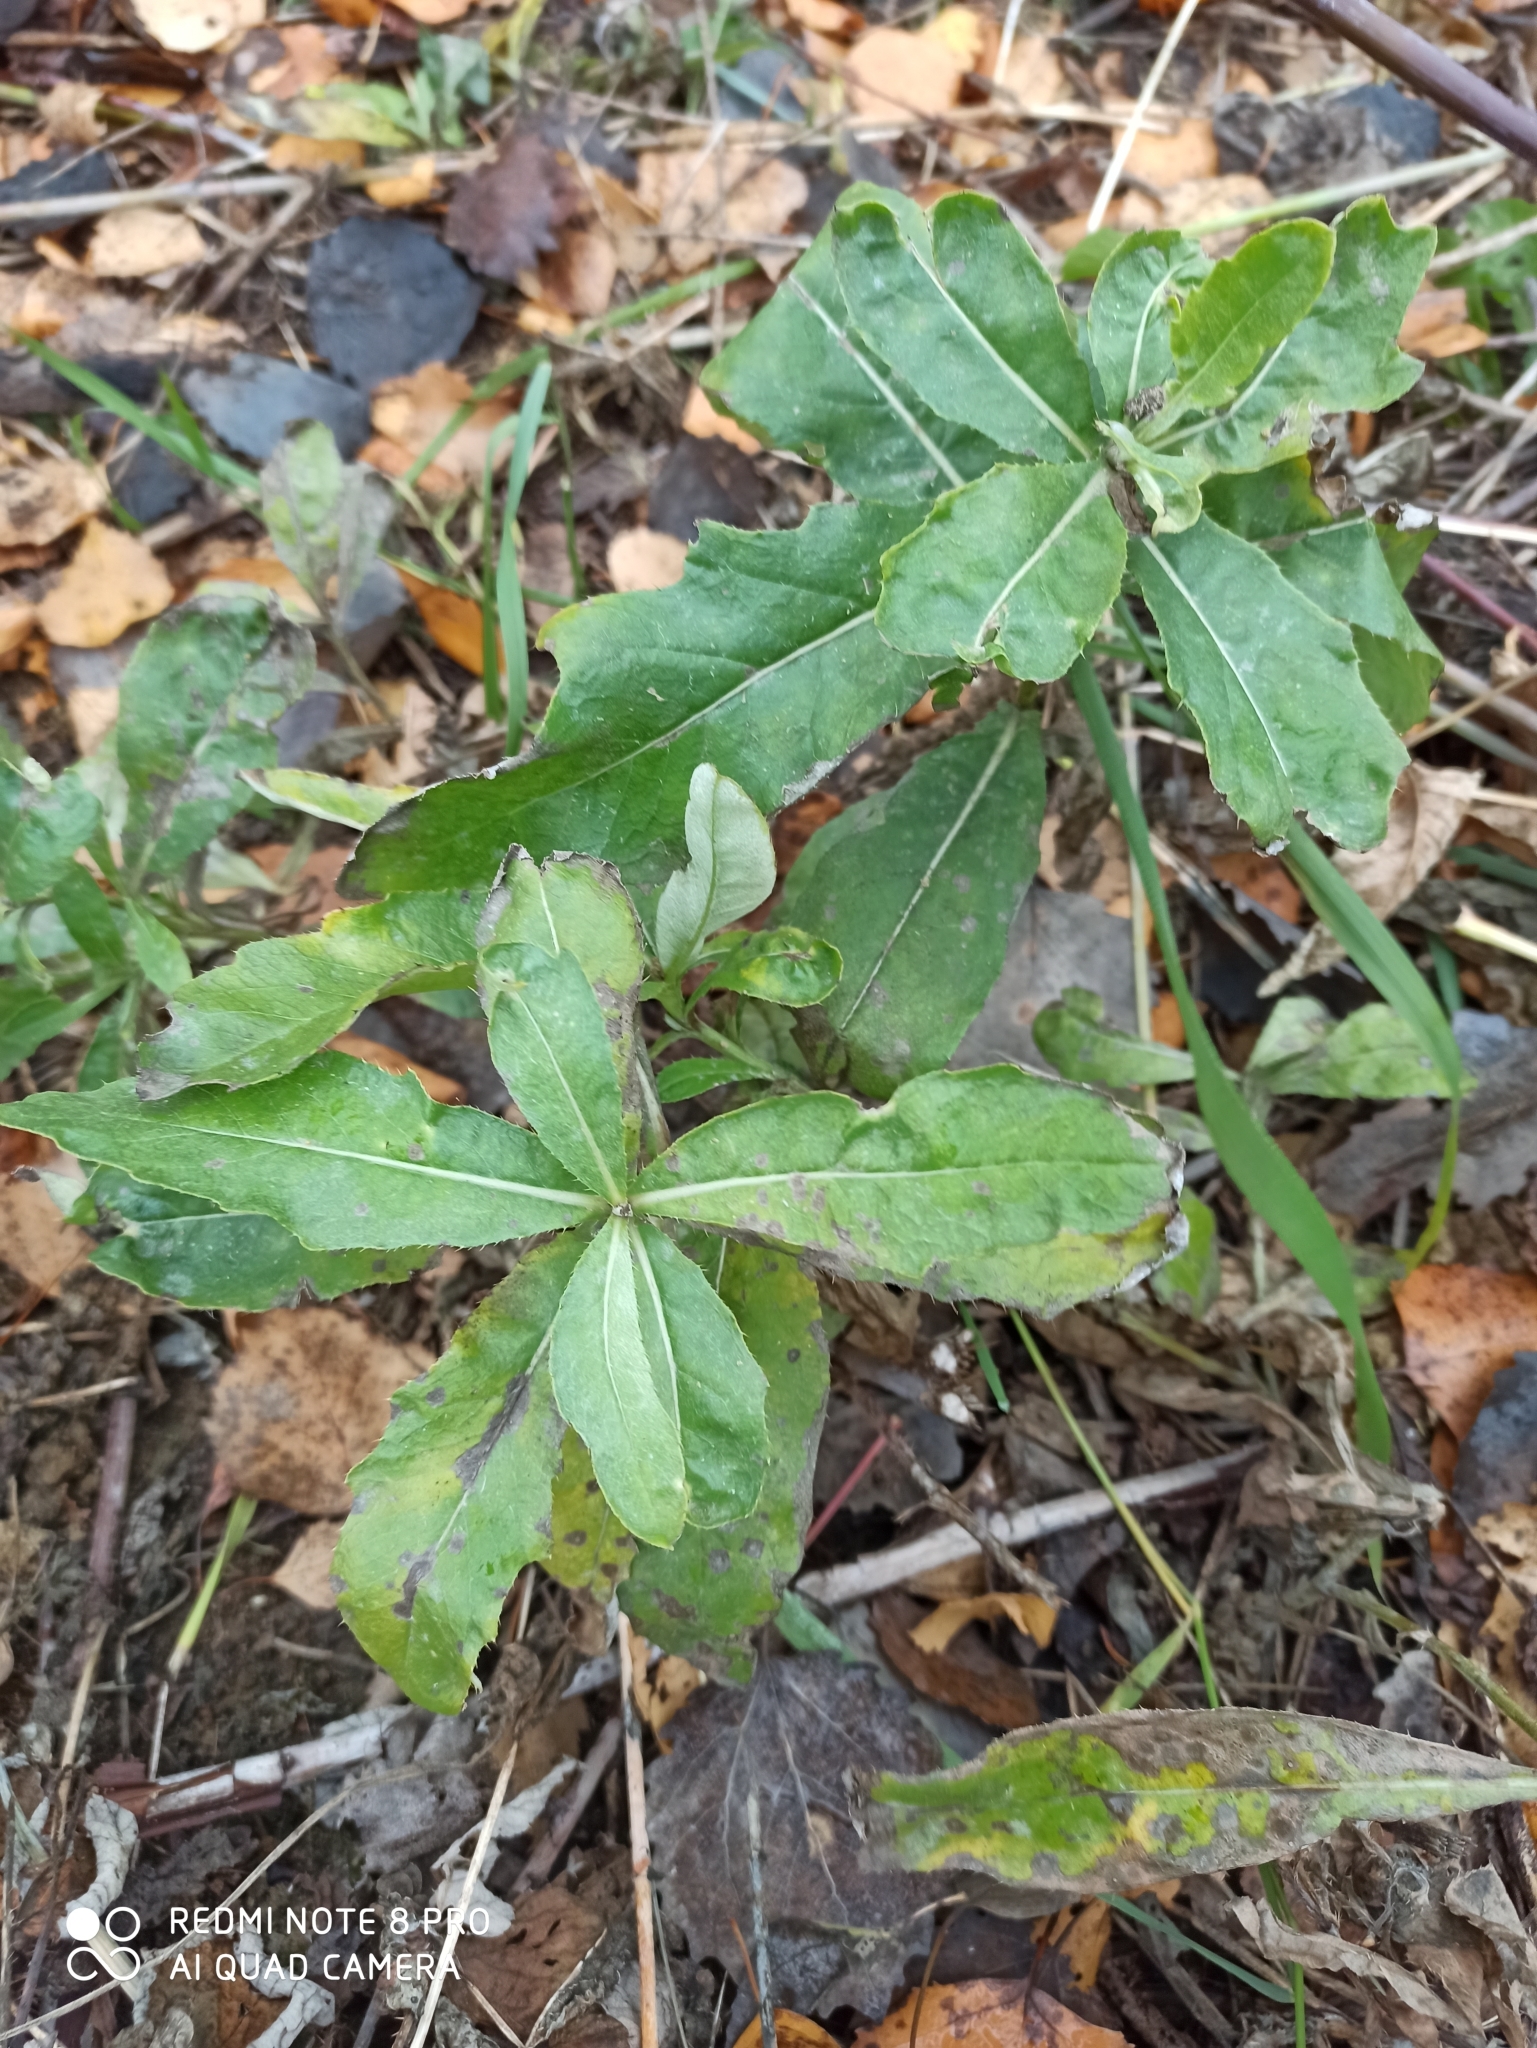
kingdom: Plantae
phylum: Tracheophyta
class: Magnoliopsida
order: Asterales
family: Asteraceae
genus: Cirsium
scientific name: Cirsium arvense
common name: Creeping thistle
